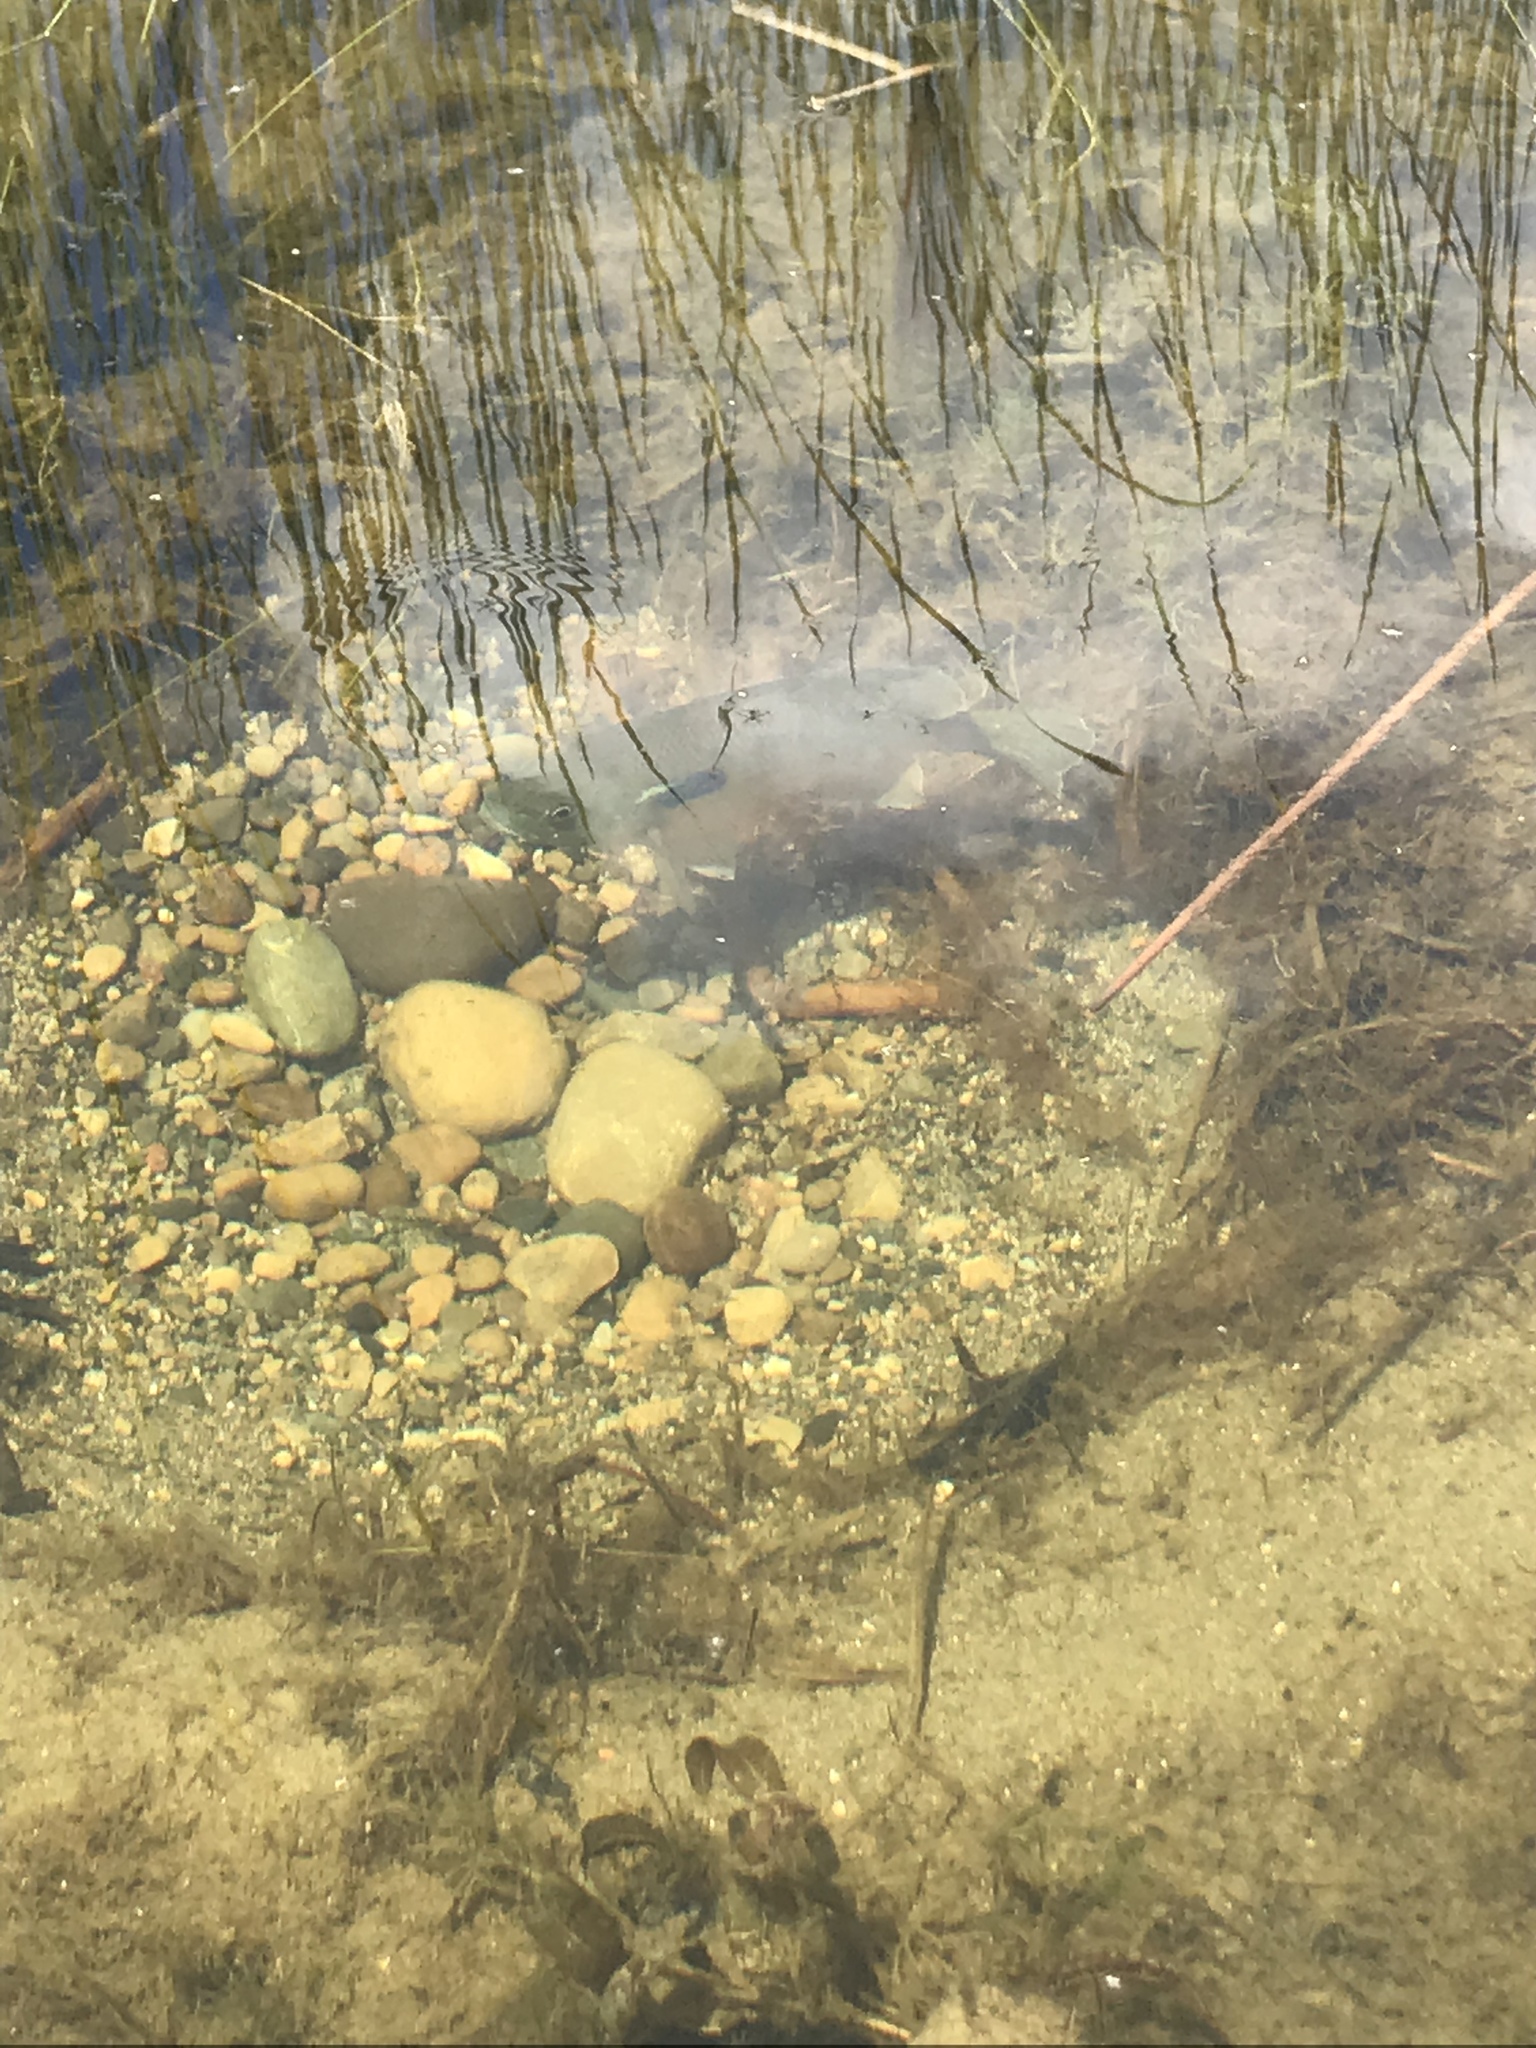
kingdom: Animalia
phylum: Chordata
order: Perciformes
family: Centrarchidae
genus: Lepomis
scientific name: Lepomis macrochirus
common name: Bluegill
